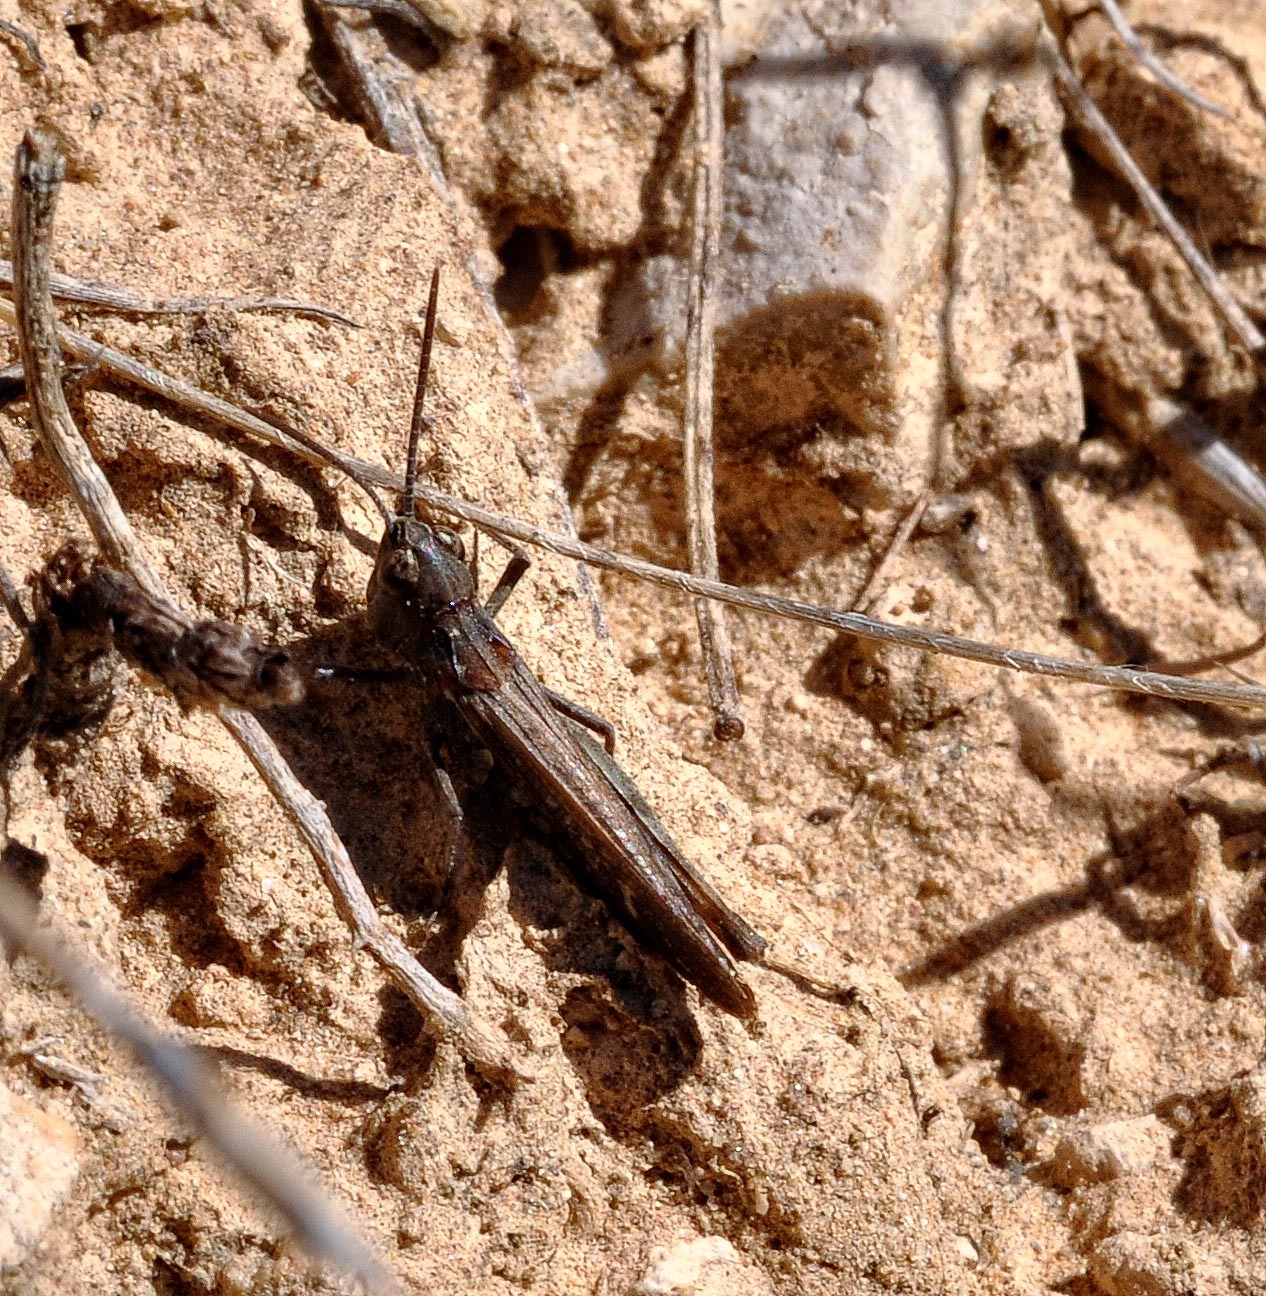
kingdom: Animalia
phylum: Arthropoda
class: Insecta
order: Orthoptera
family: Acrididae
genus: Omocestus
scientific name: Omocestus raymondi
